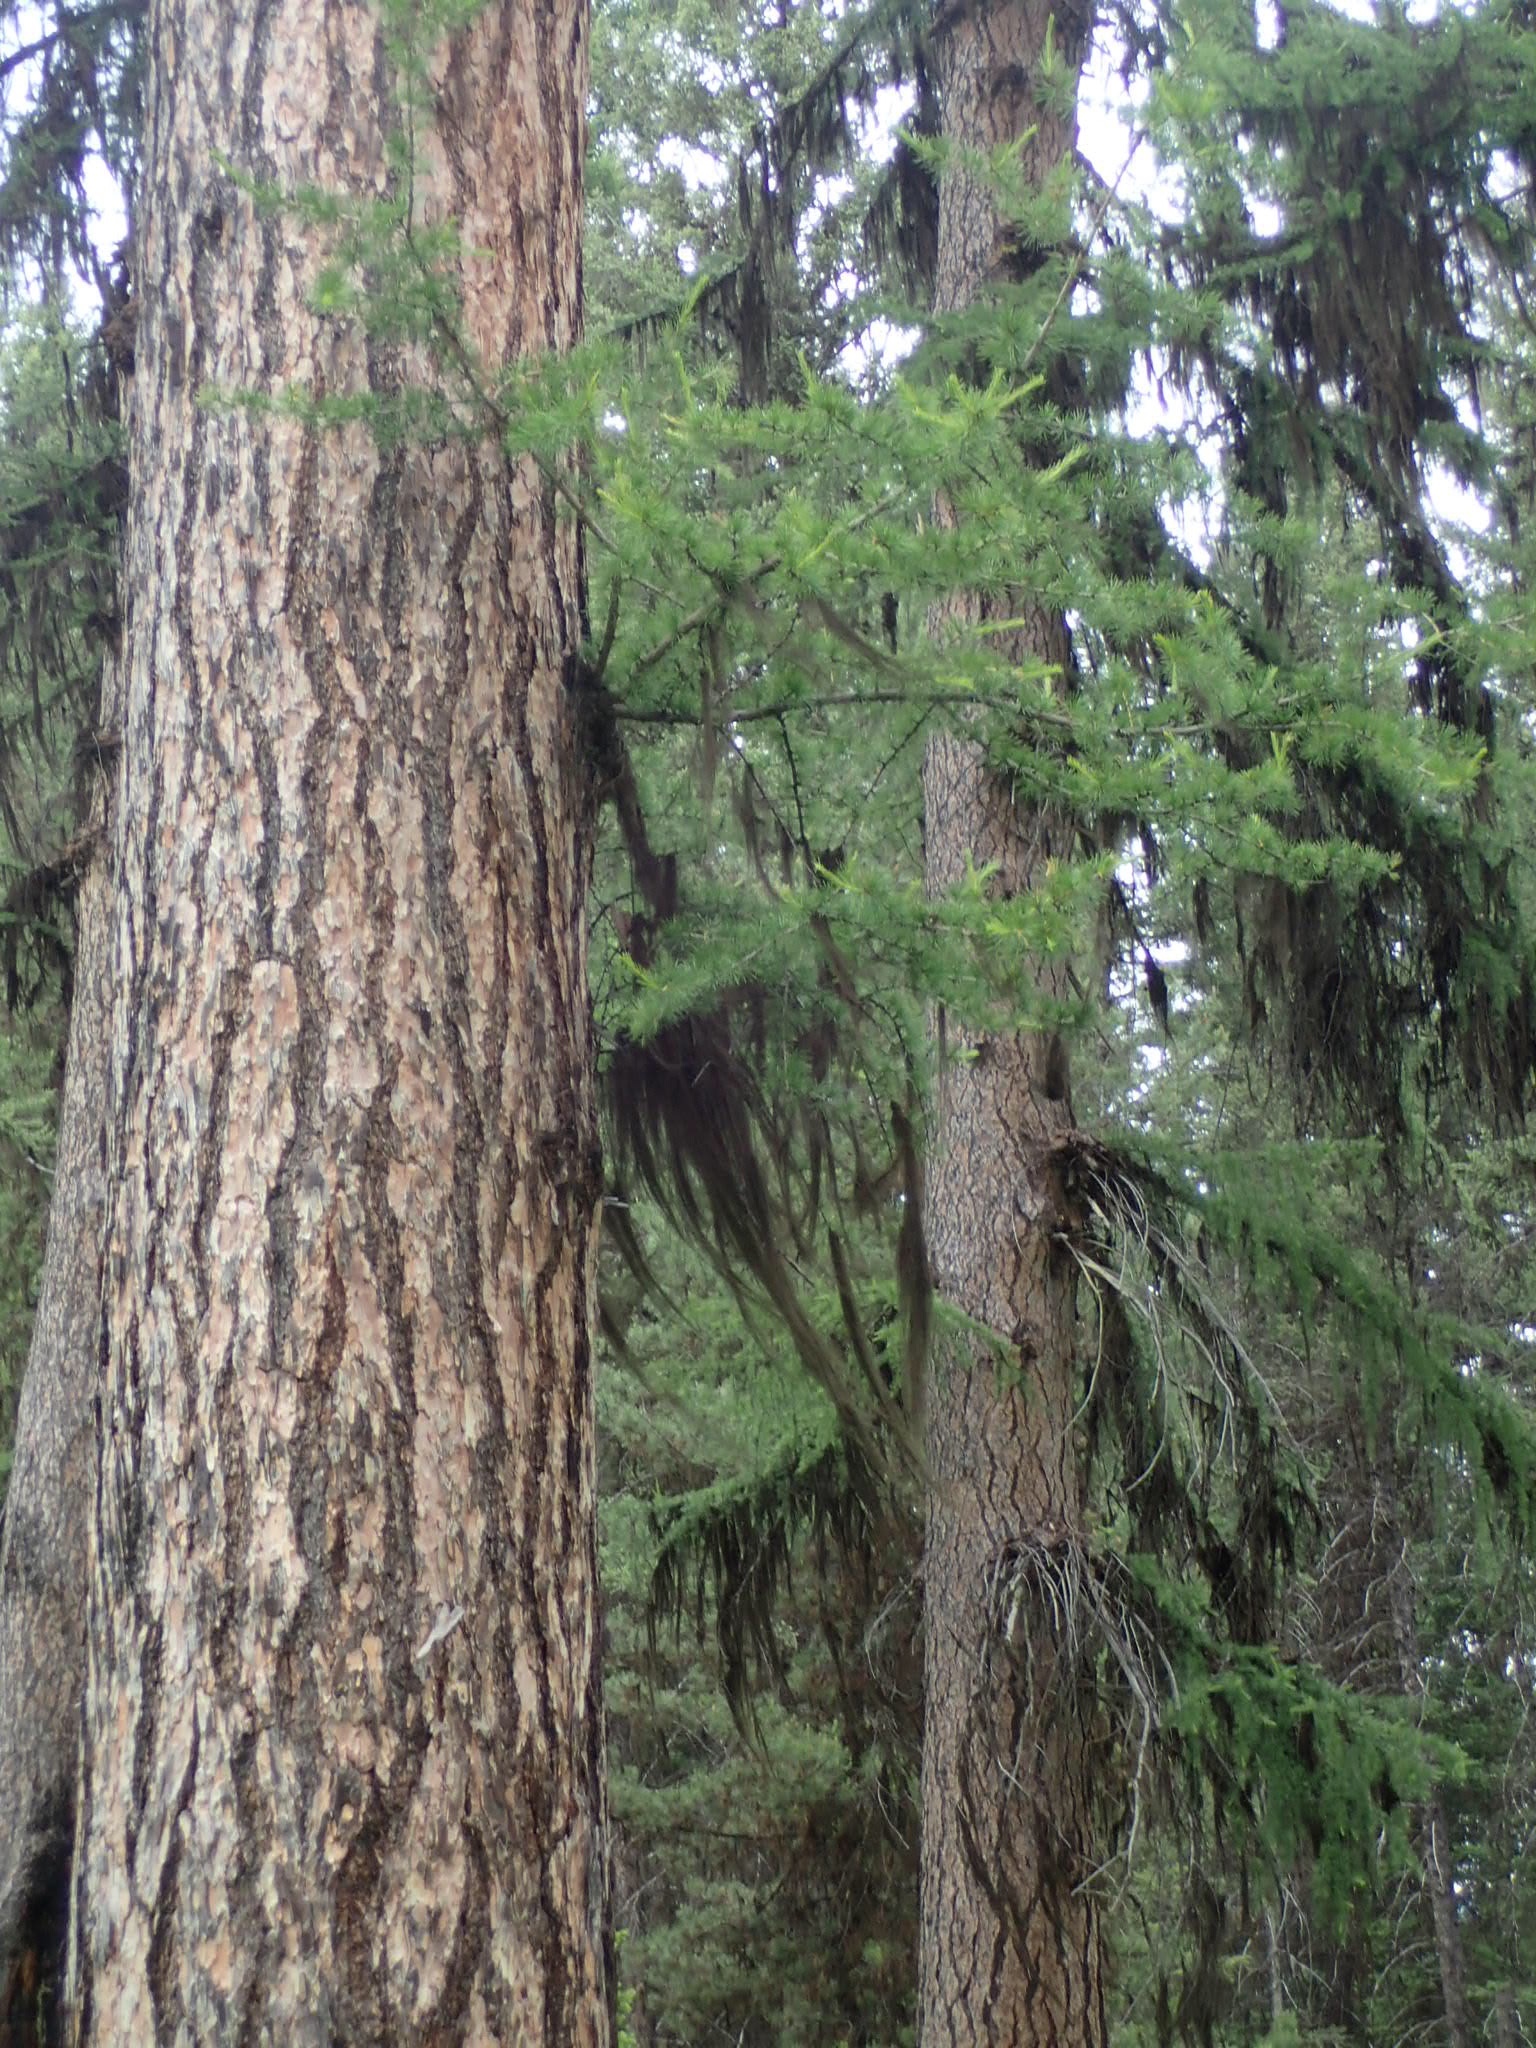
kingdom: Plantae
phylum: Tracheophyta
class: Pinopsida
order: Pinales
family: Pinaceae
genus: Larix
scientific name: Larix occidentalis
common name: Western larch
